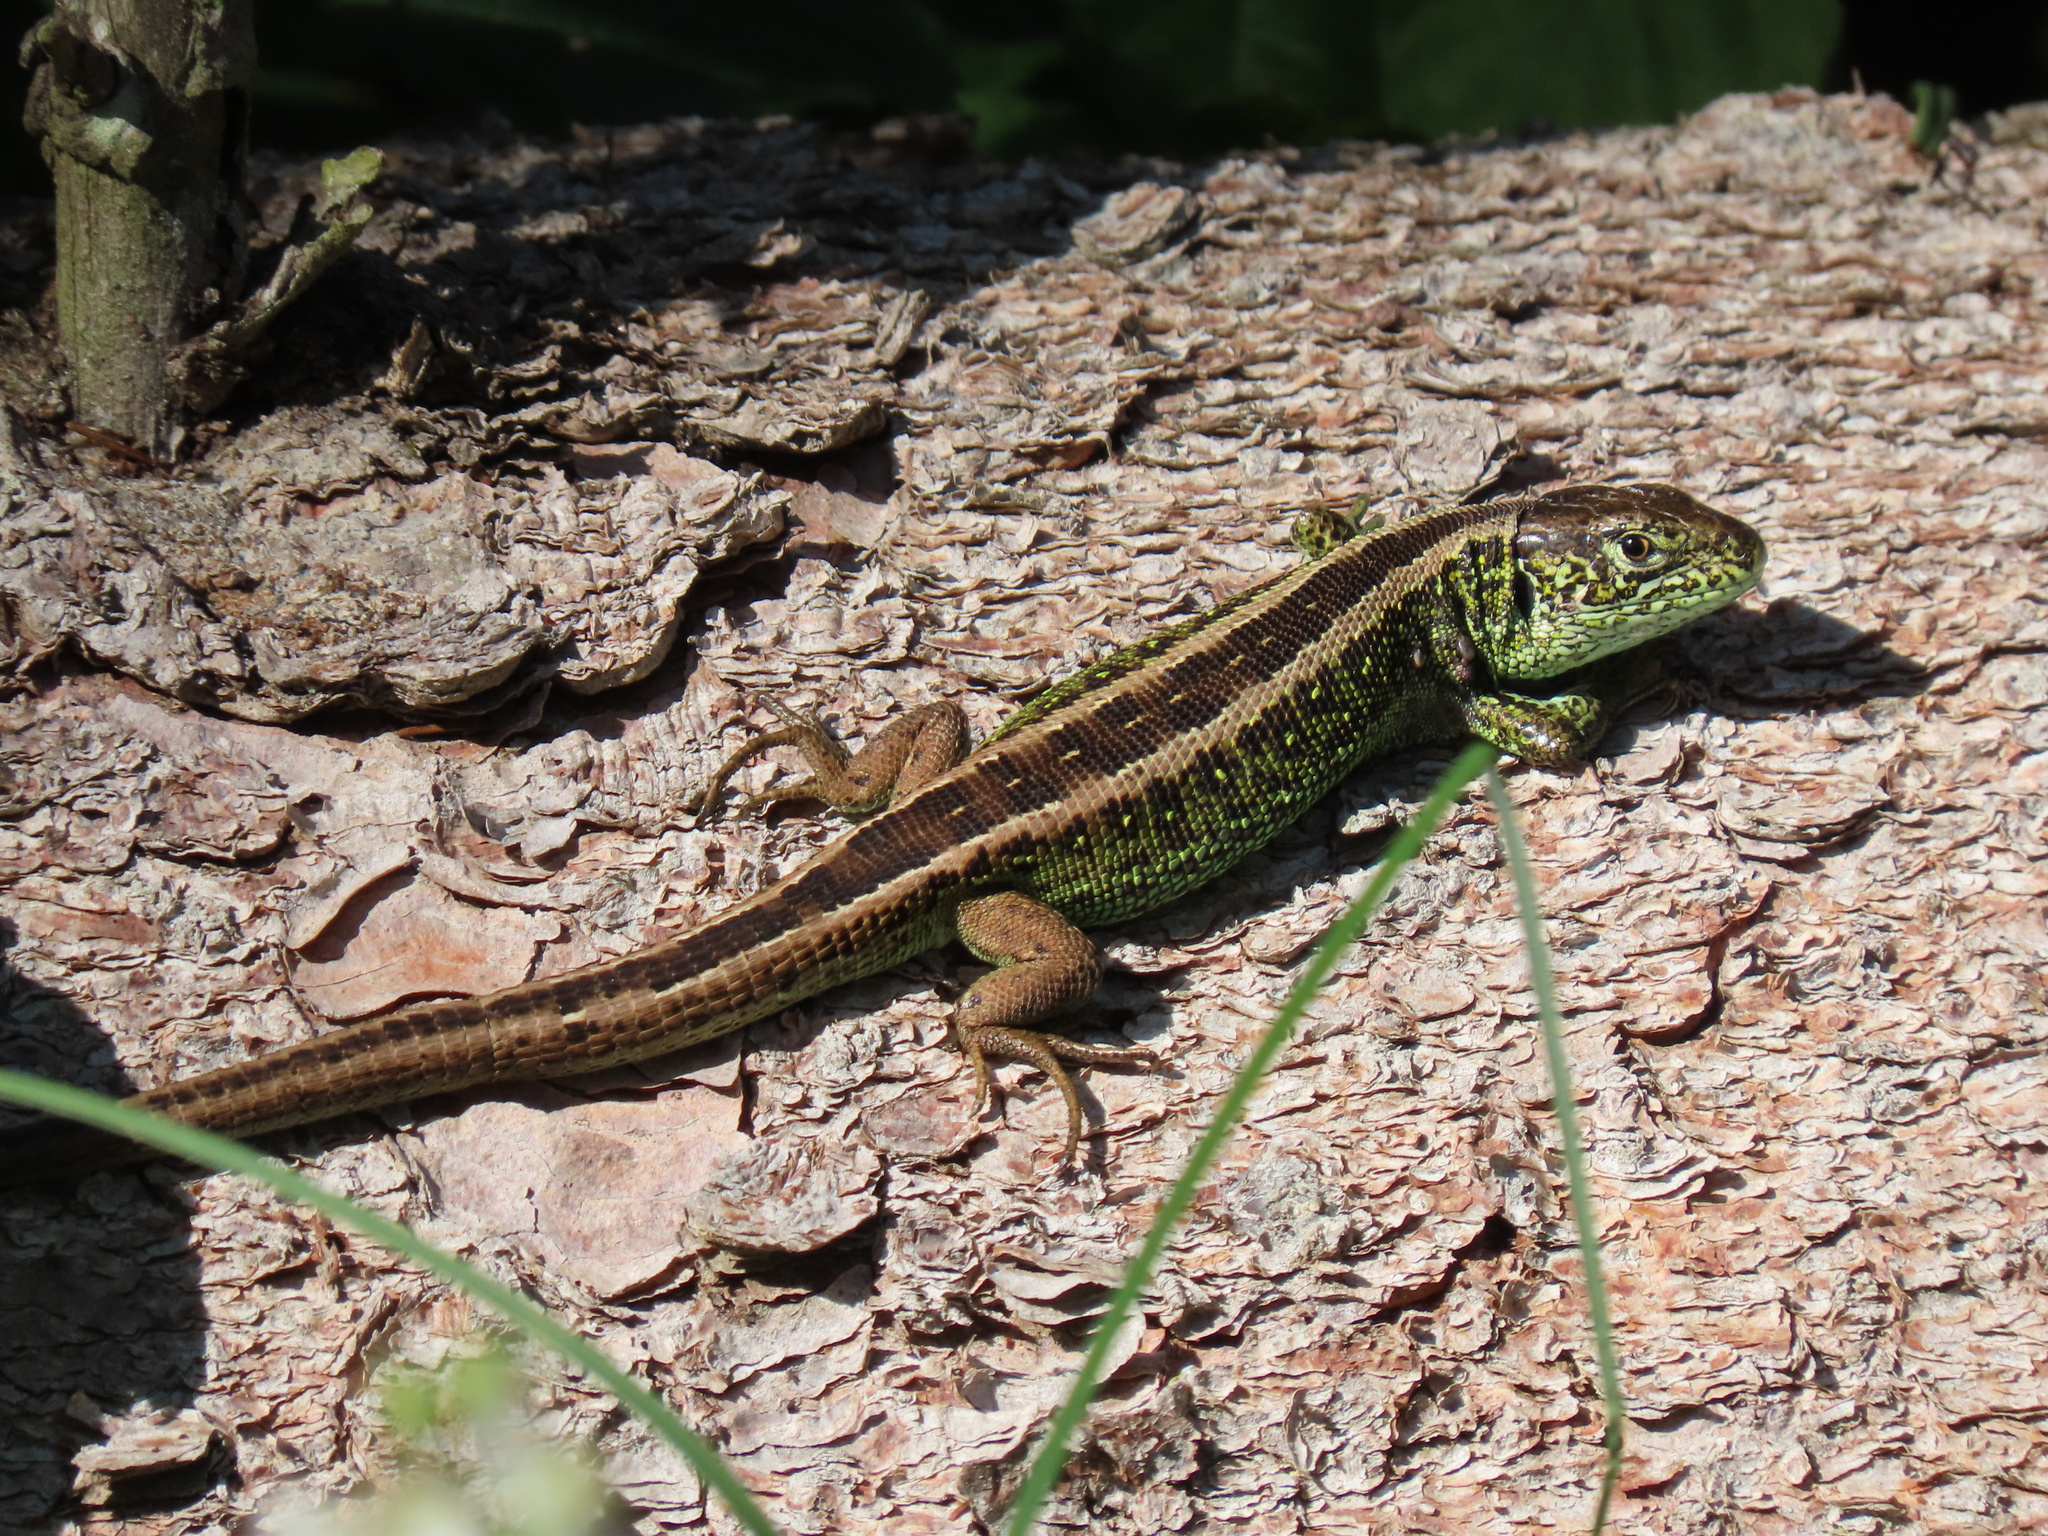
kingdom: Animalia
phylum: Chordata
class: Squamata
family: Lacertidae
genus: Lacerta
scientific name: Lacerta agilis
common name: Sand lizard
